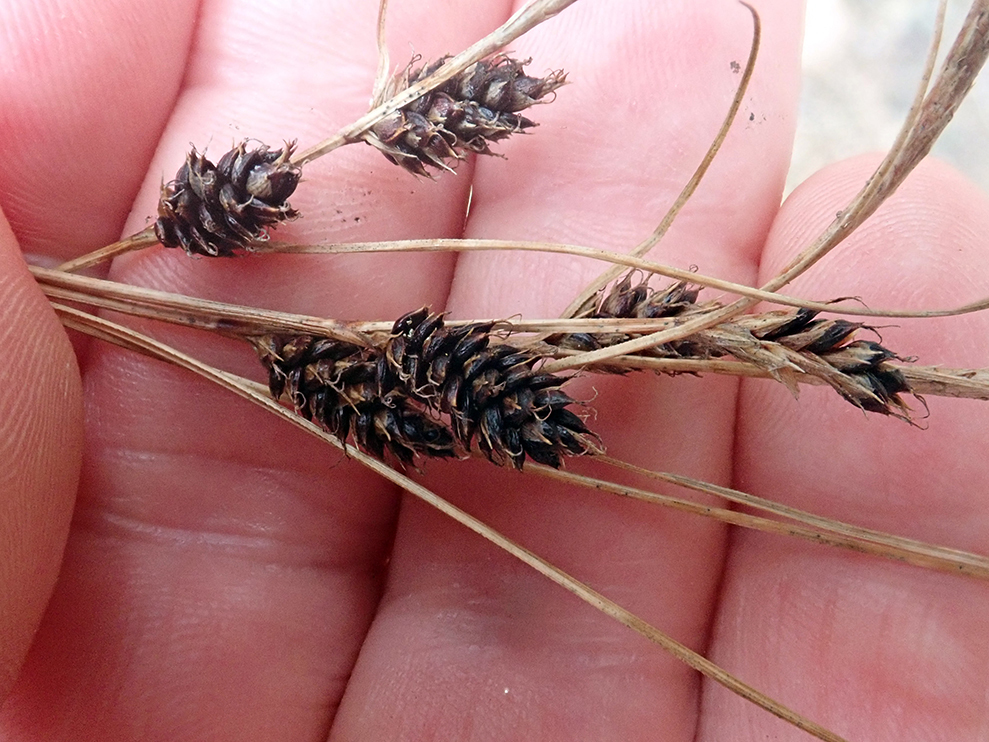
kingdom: Plantae
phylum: Tracheophyta
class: Liliopsida
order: Poales
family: Cyperaceae
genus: Carex
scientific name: Carex devia
